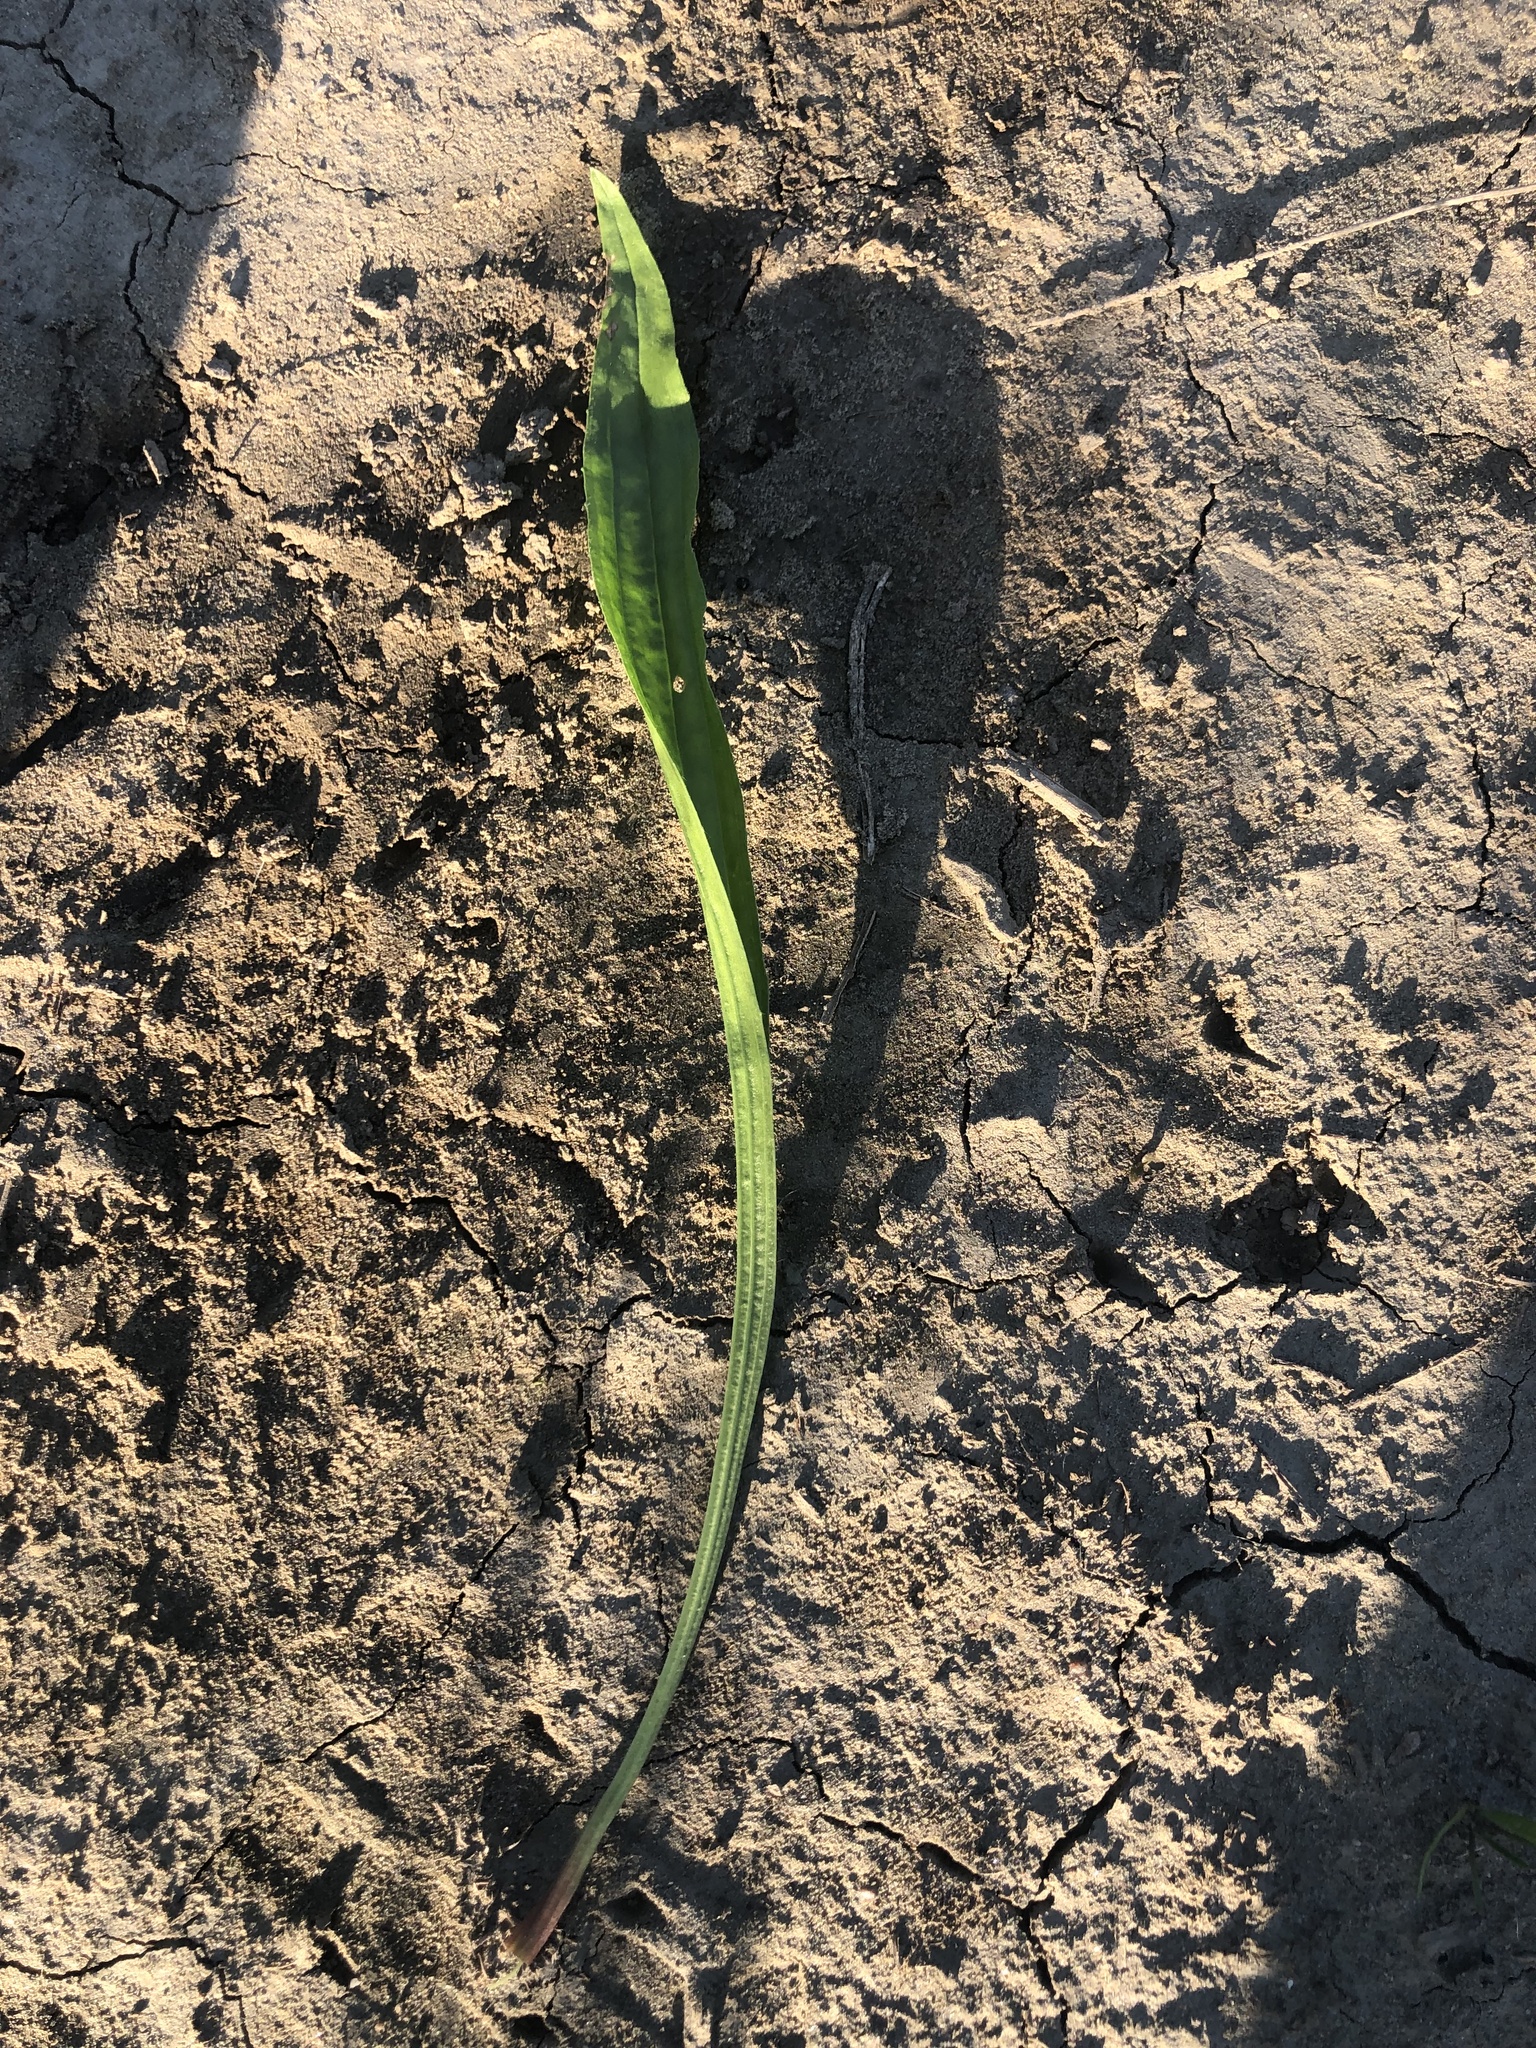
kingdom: Plantae
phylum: Tracheophyta
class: Magnoliopsida
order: Lamiales
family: Plantaginaceae
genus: Plantago
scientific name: Plantago lanceolata
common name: Ribwort plantain
